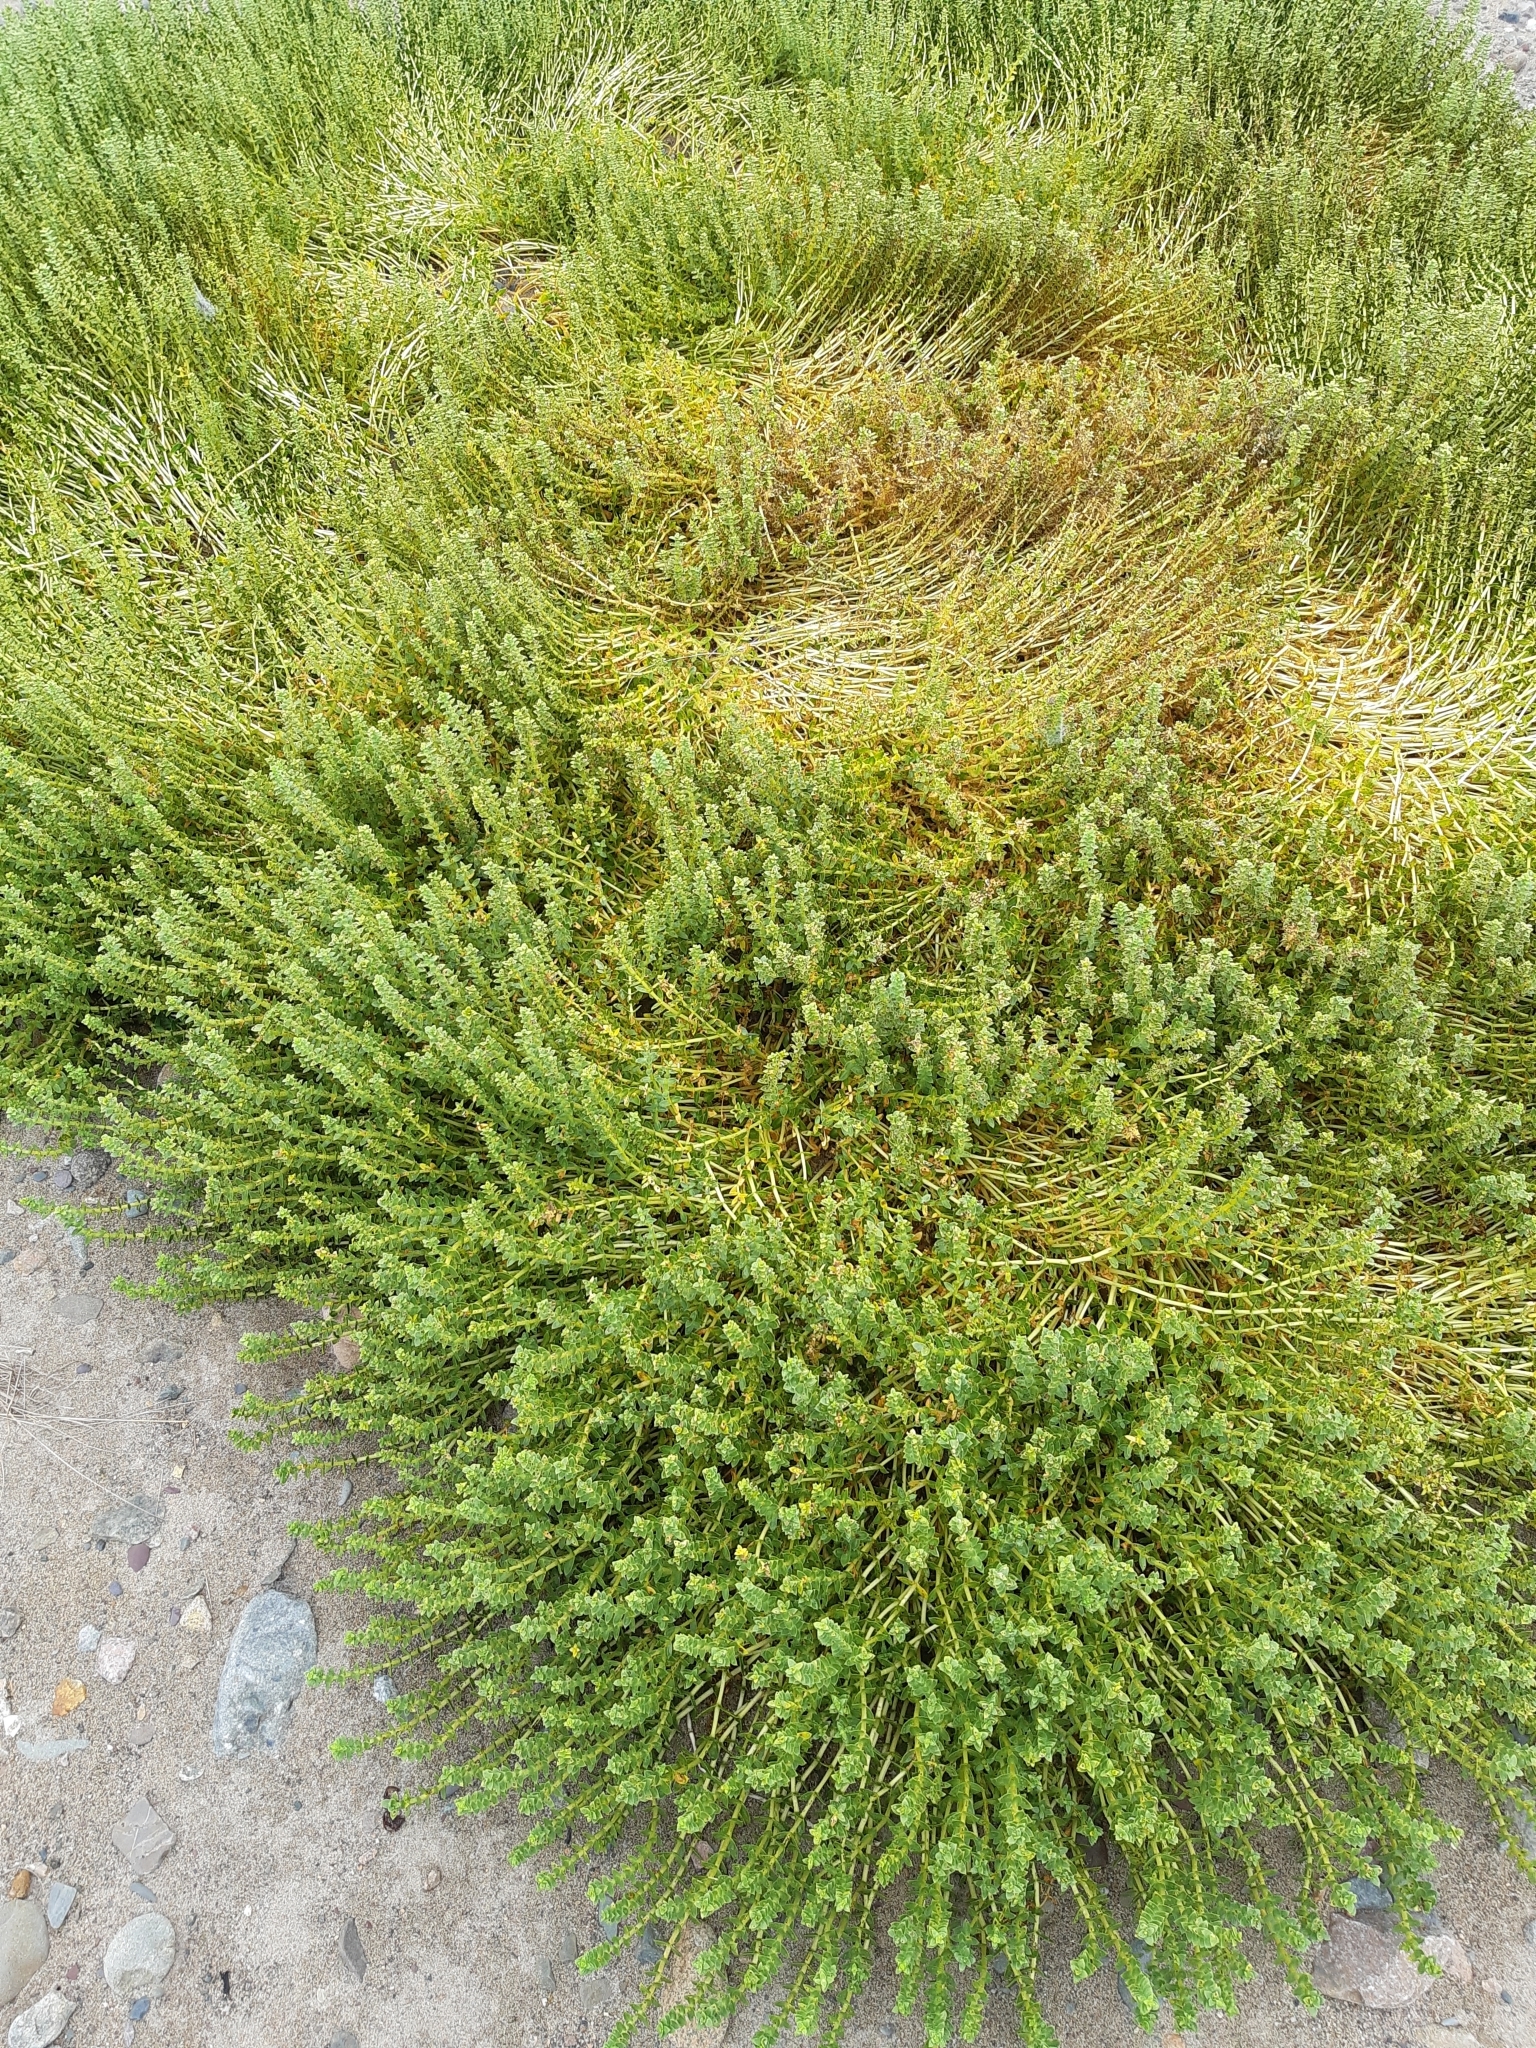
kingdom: Plantae
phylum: Tracheophyta
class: Magnoliopsida
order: Caryophyllales
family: Caryophyllaceae
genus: Honckenya
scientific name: Honckenya peploides
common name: Sea sandwort
